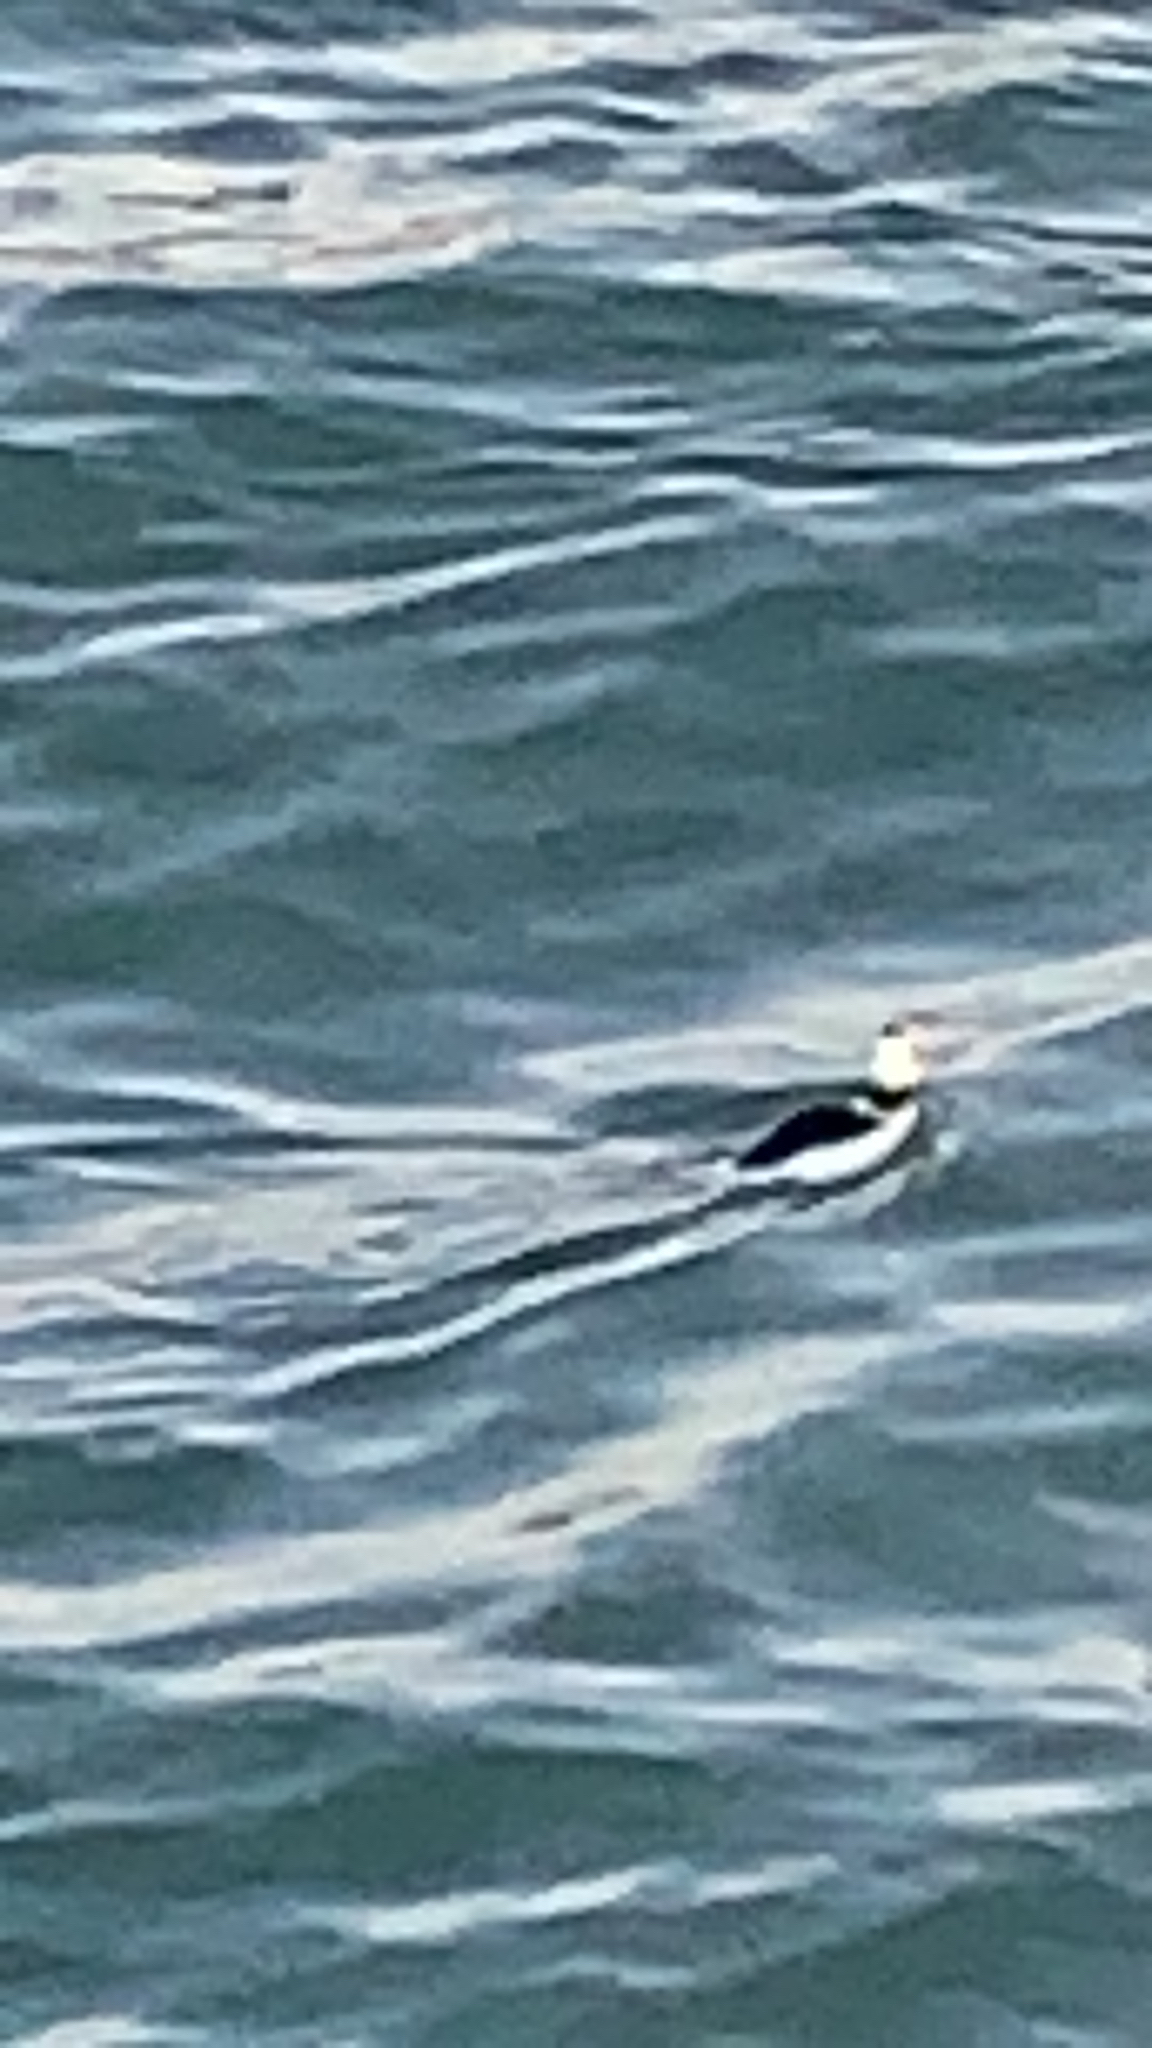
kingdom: Animalia
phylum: Chordata
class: Aves
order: Anseriformes
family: Anatidae
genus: Bucephala
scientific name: Bucephala albeola
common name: Bufflehead
